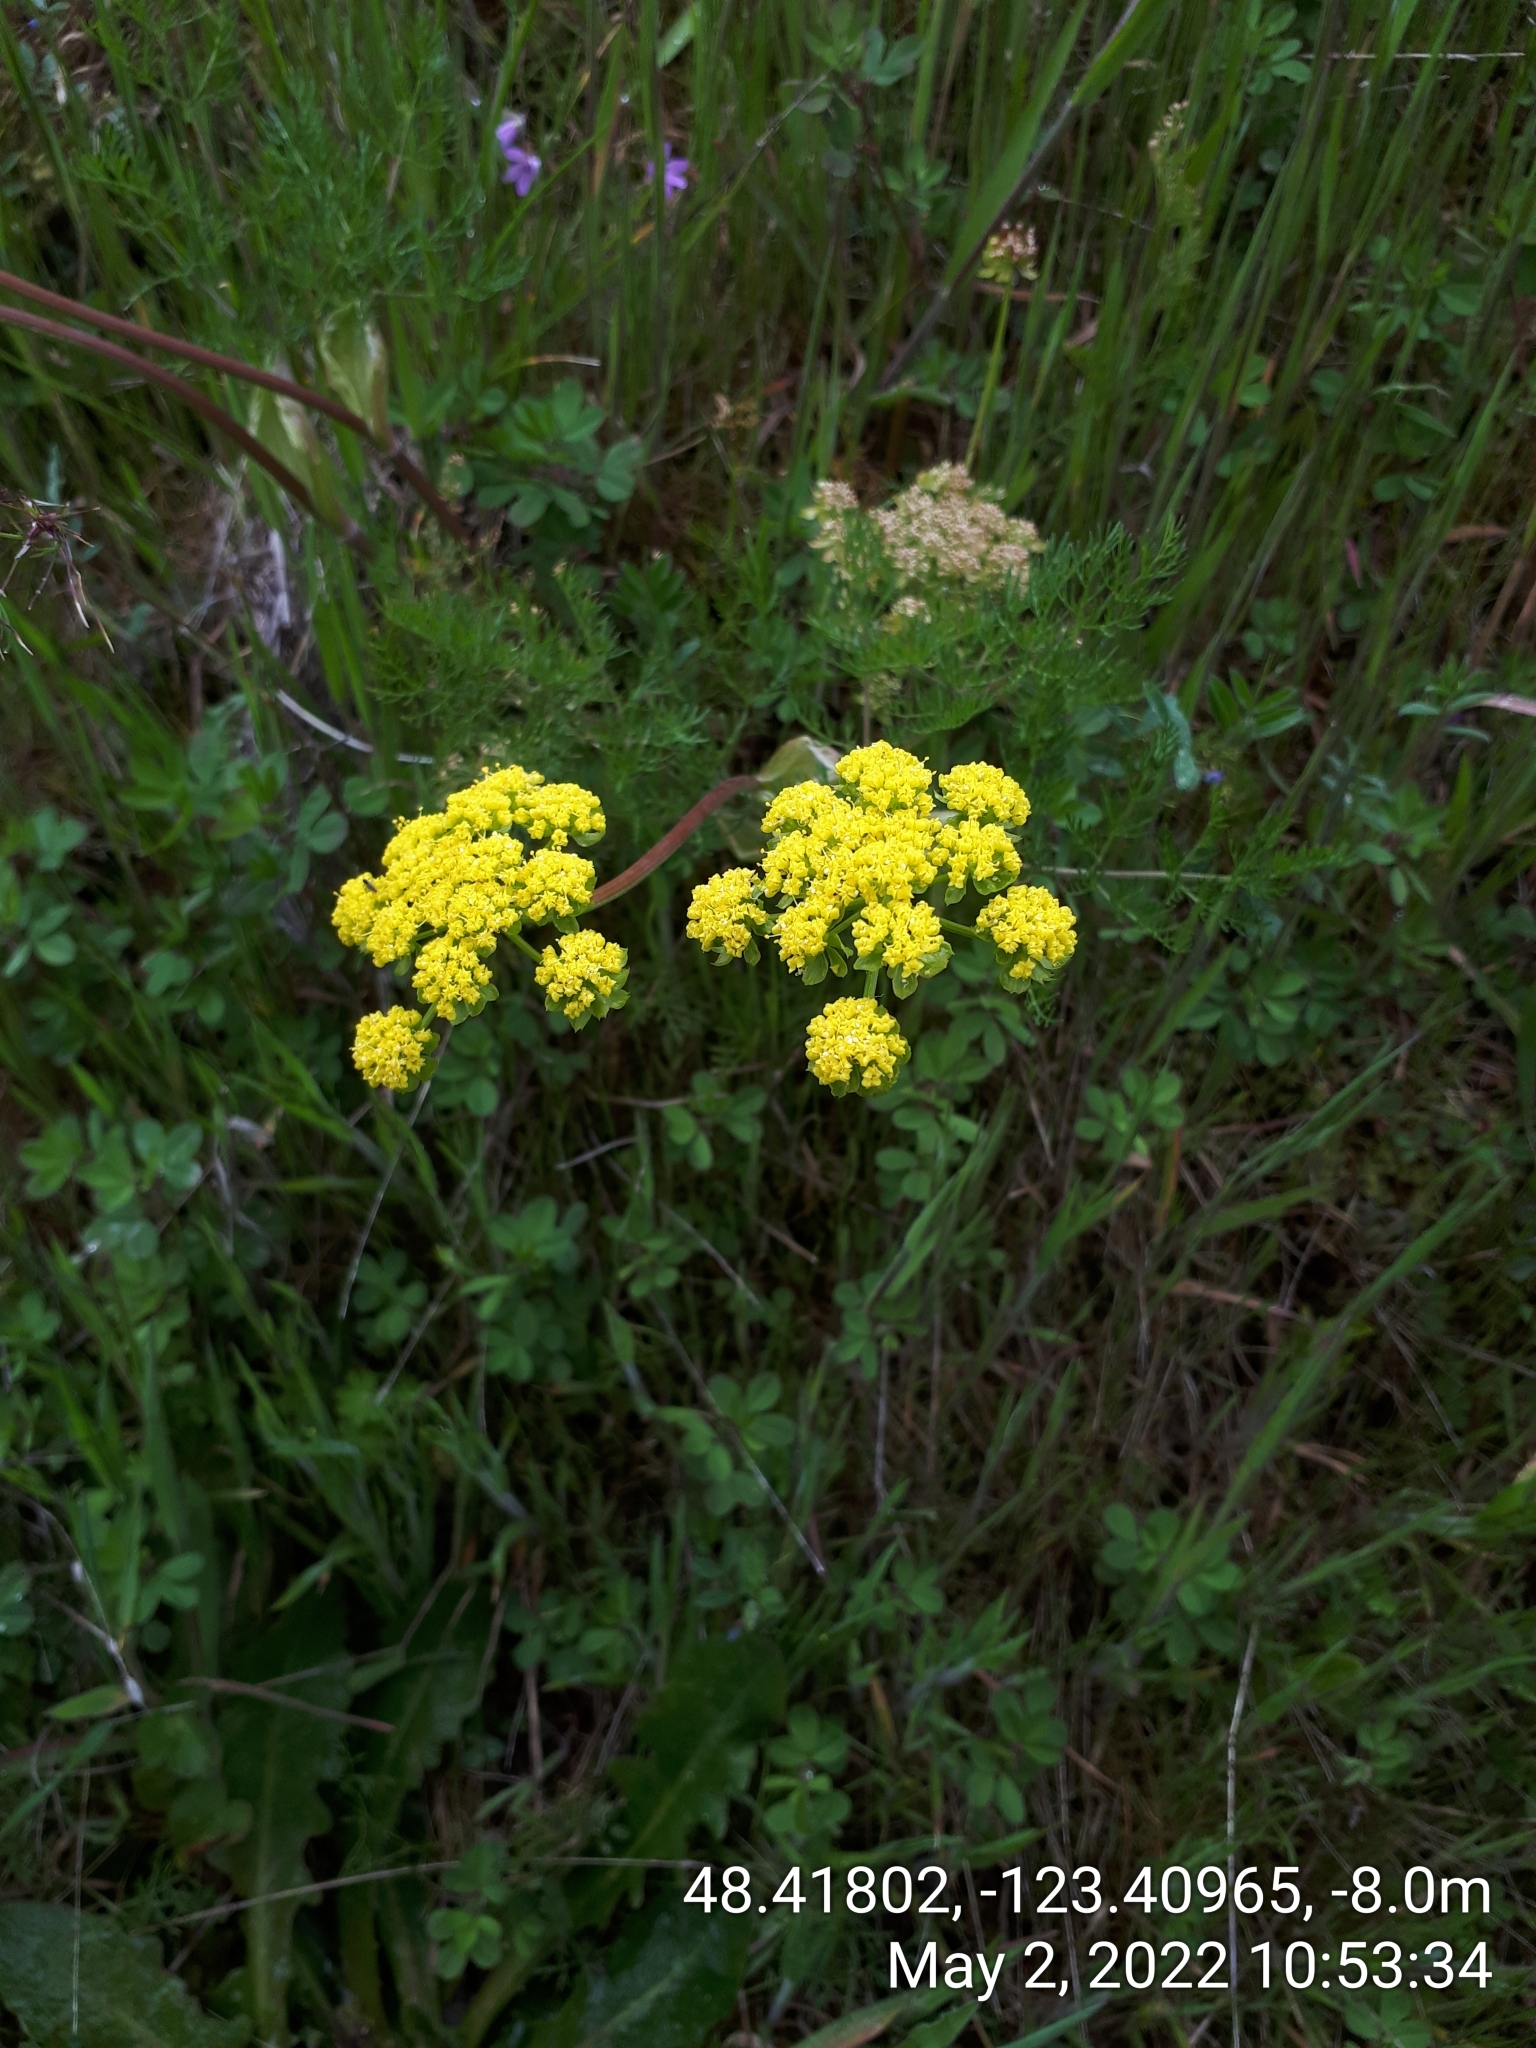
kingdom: Plantae
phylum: Tracheophyta
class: Magnoliopsida
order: Apiales
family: Apiaceae
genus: Lomatium
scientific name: Lomatium utriculatum
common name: Fine-leaf desert-parsley
